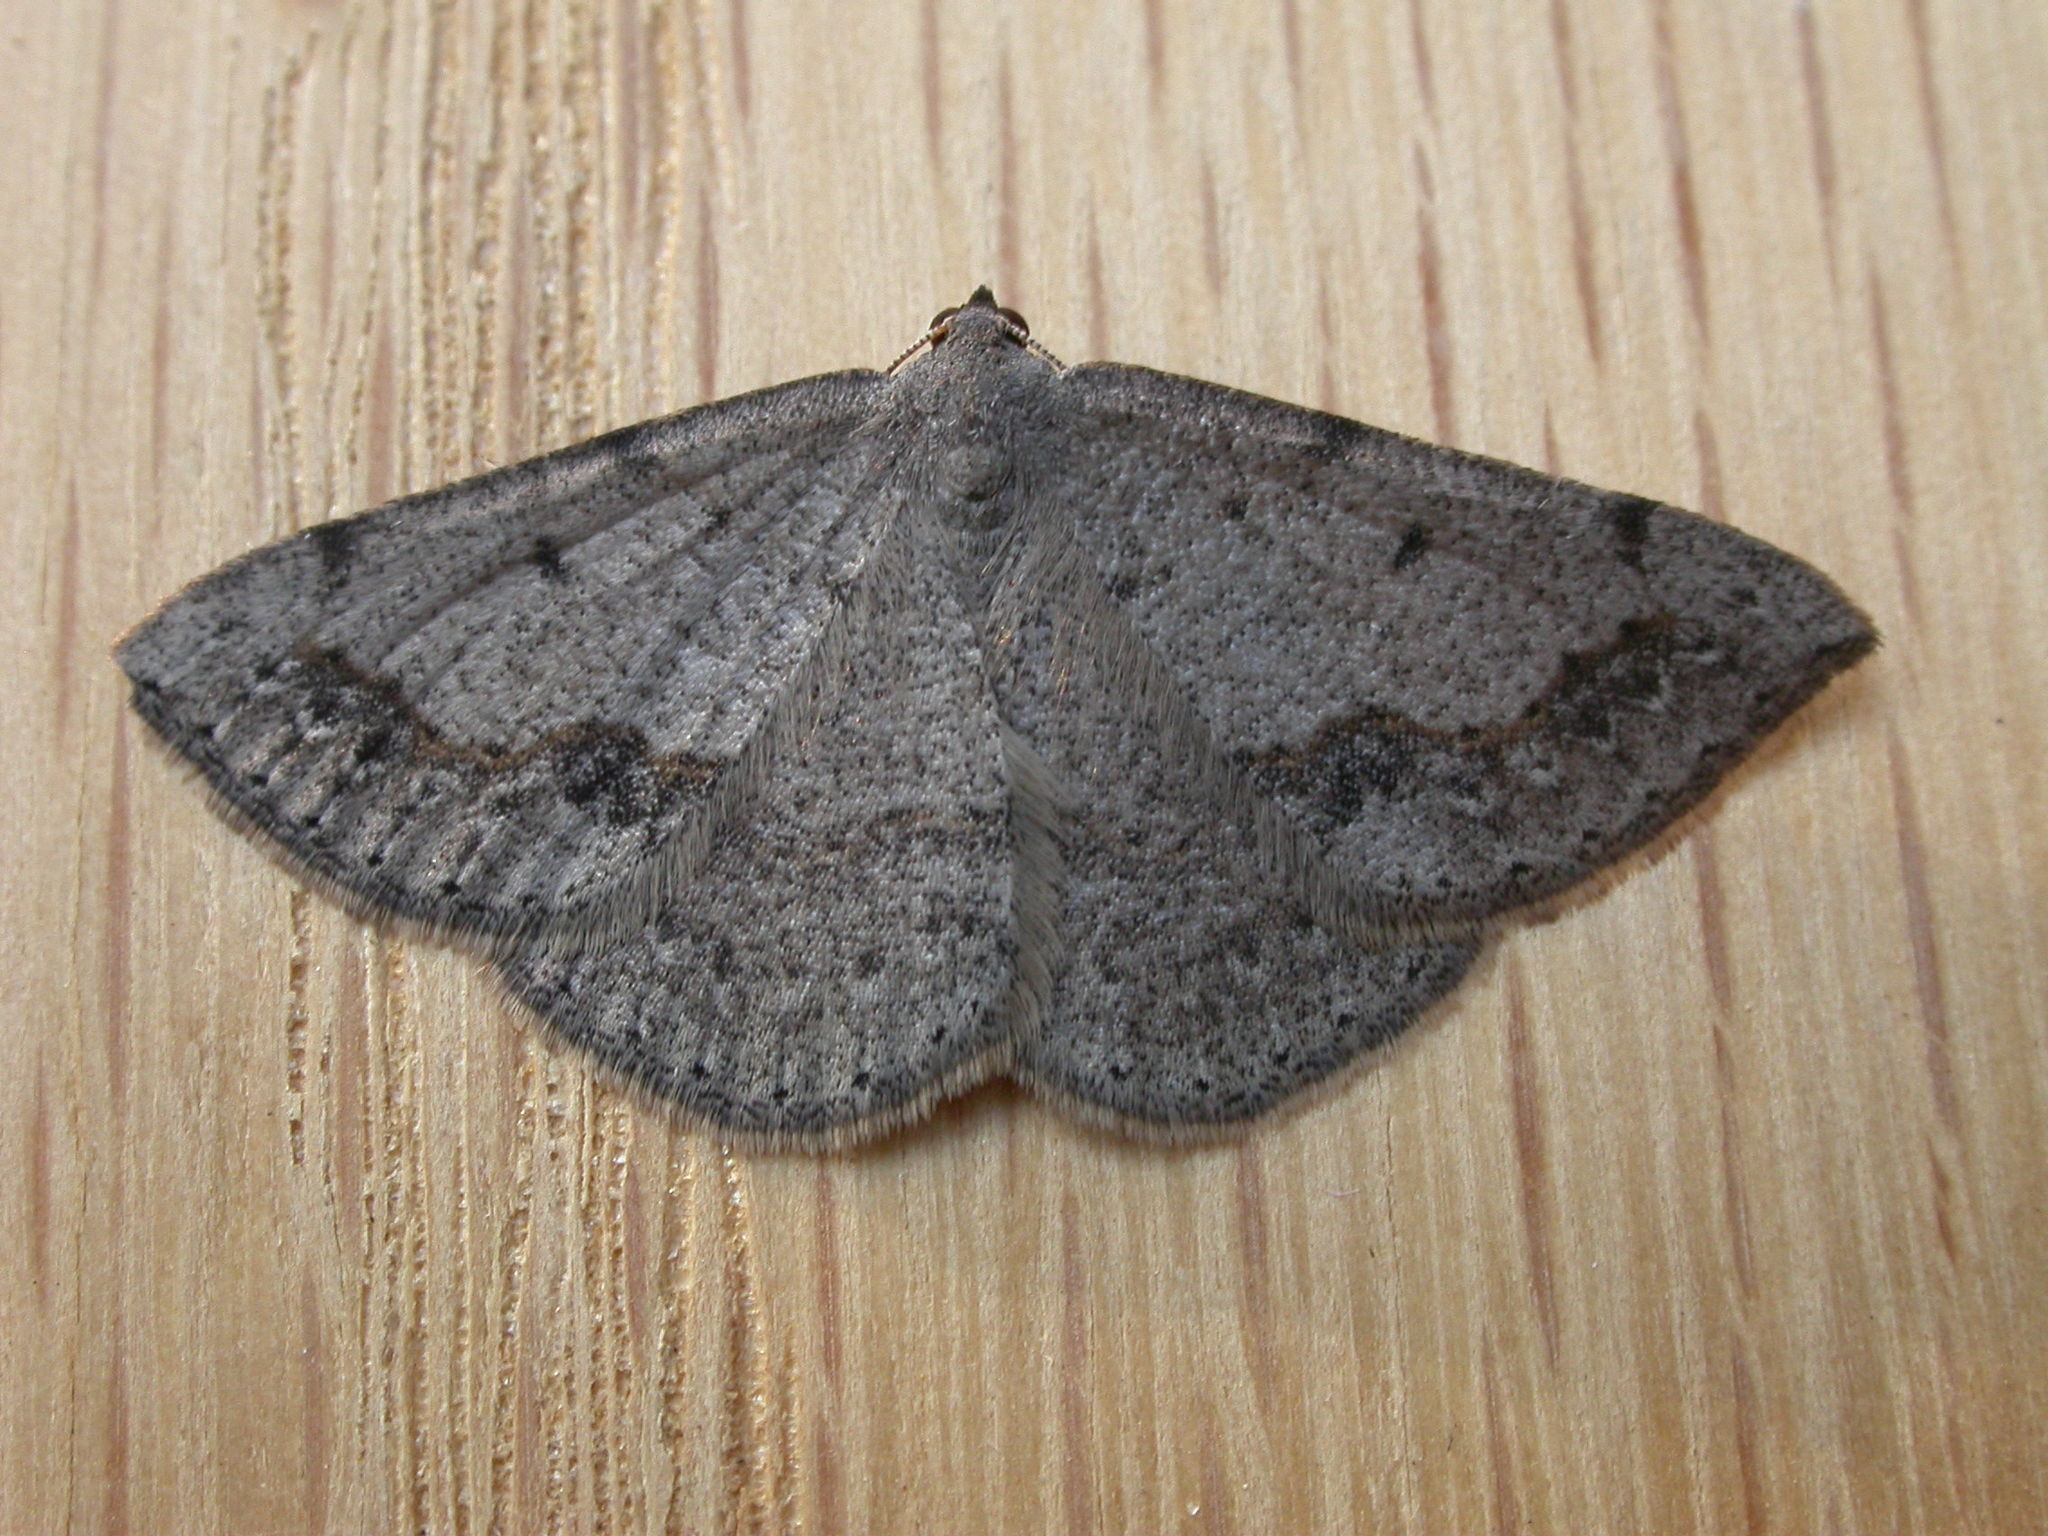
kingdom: Animalia
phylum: Arthropoda
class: Insecta
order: Lepidoptera
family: Geometridae
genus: Taxeotis
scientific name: Taxeotis intextata
